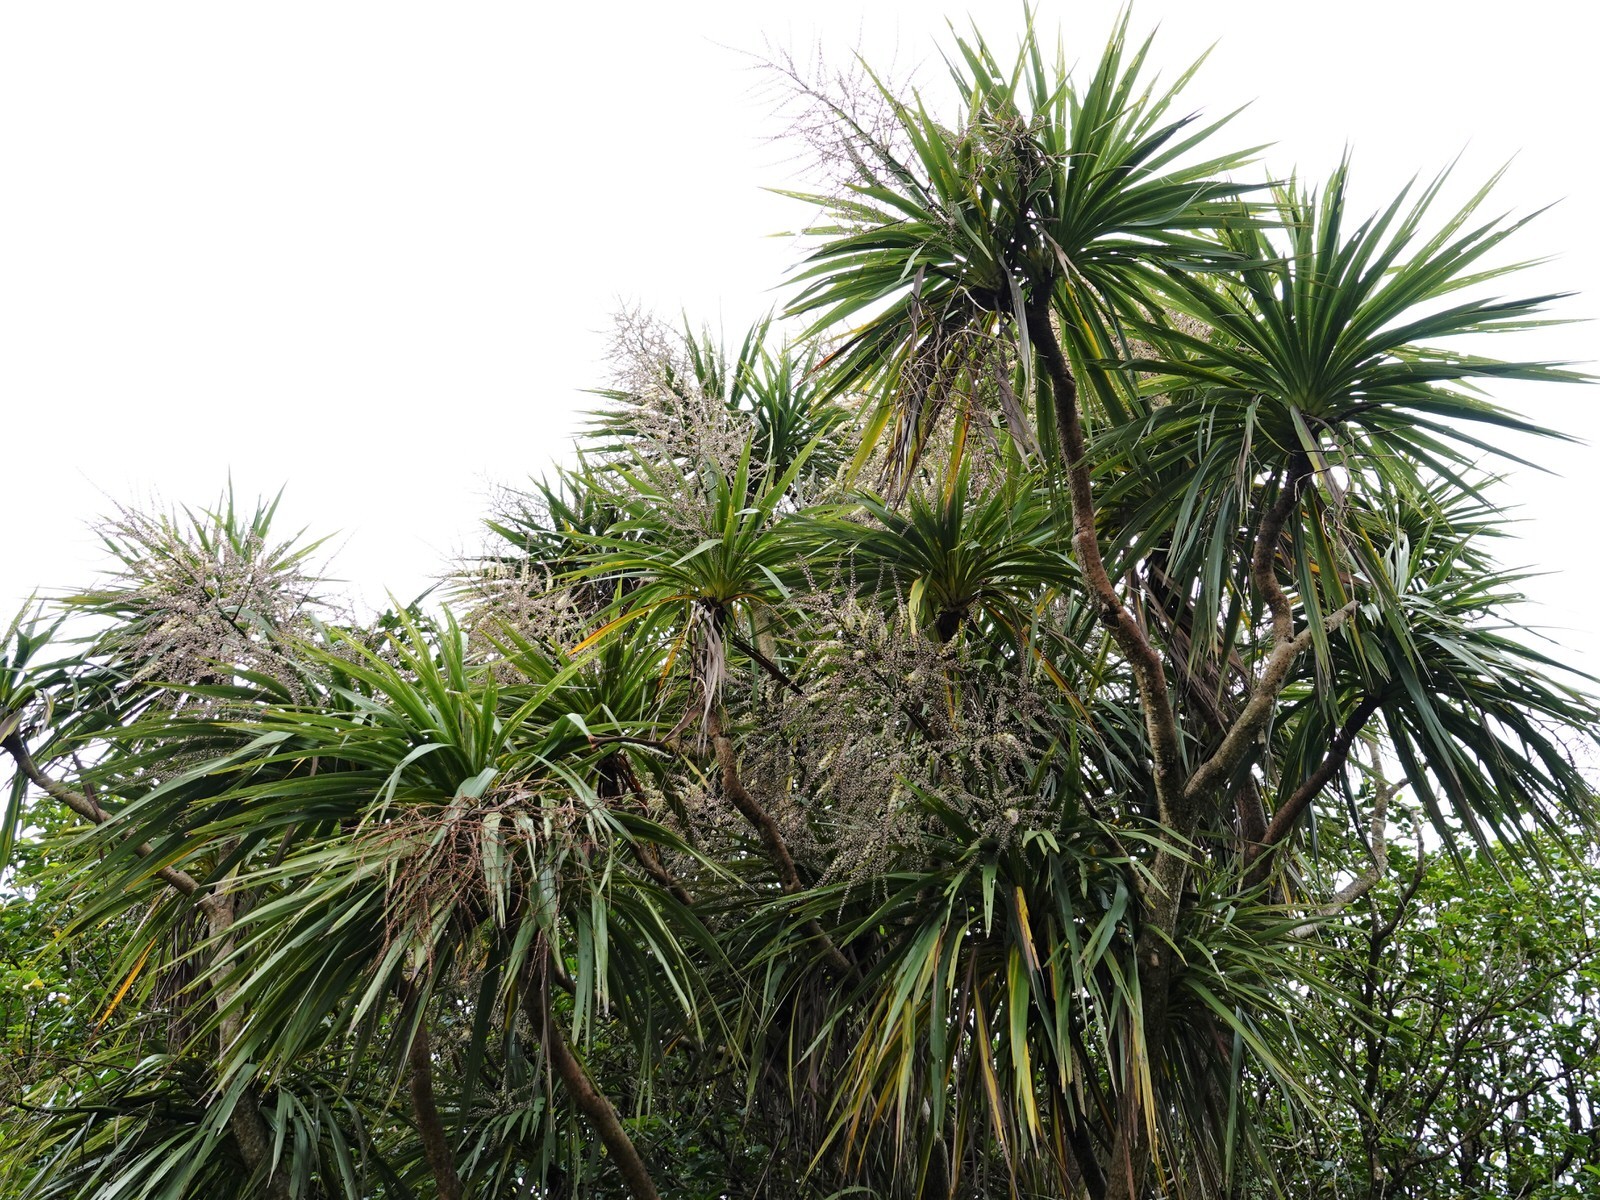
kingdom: Plantae
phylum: Tracheophyta
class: Liliopsida
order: Asparagales
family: Asparagaceae
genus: Cordyline
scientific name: Cordyline australis
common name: Cabbage-palm
